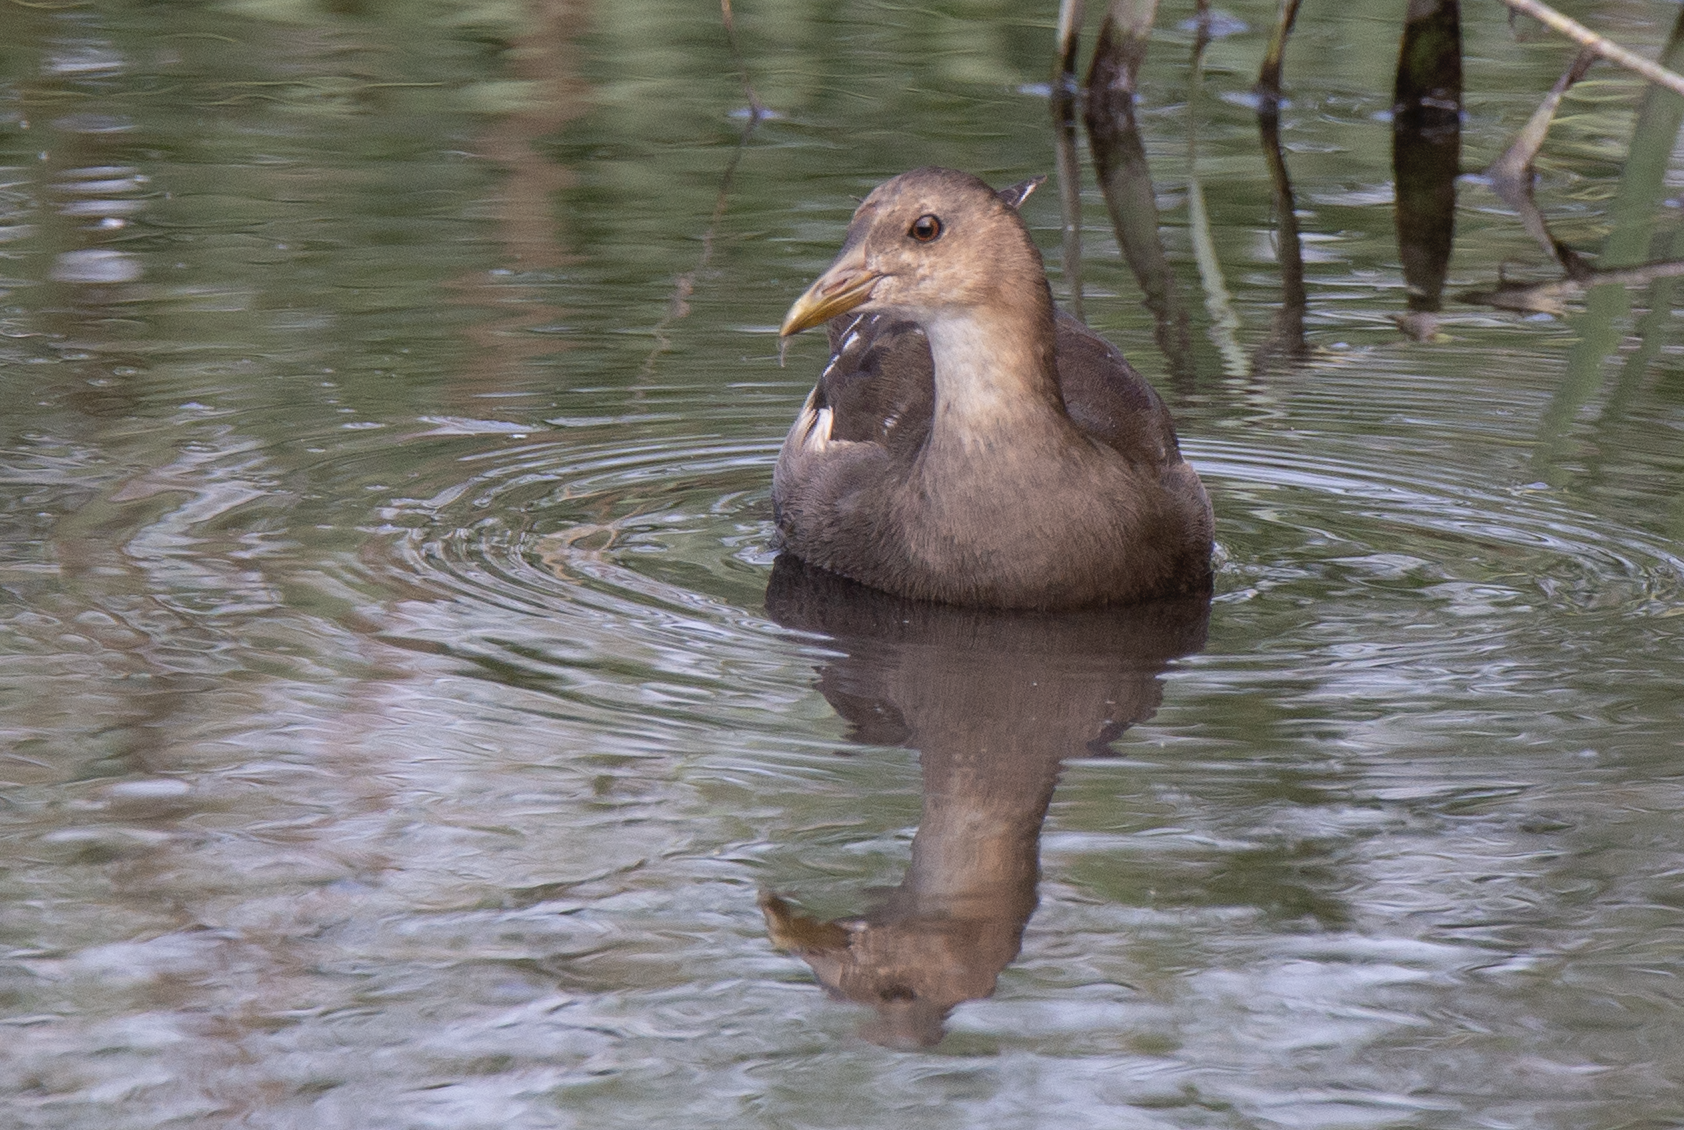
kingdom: Animalia
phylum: Chordata
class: Aves
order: Gruiformes
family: Rallidae
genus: Gallinula
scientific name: Gallinula chloropus
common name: Common moorhen
